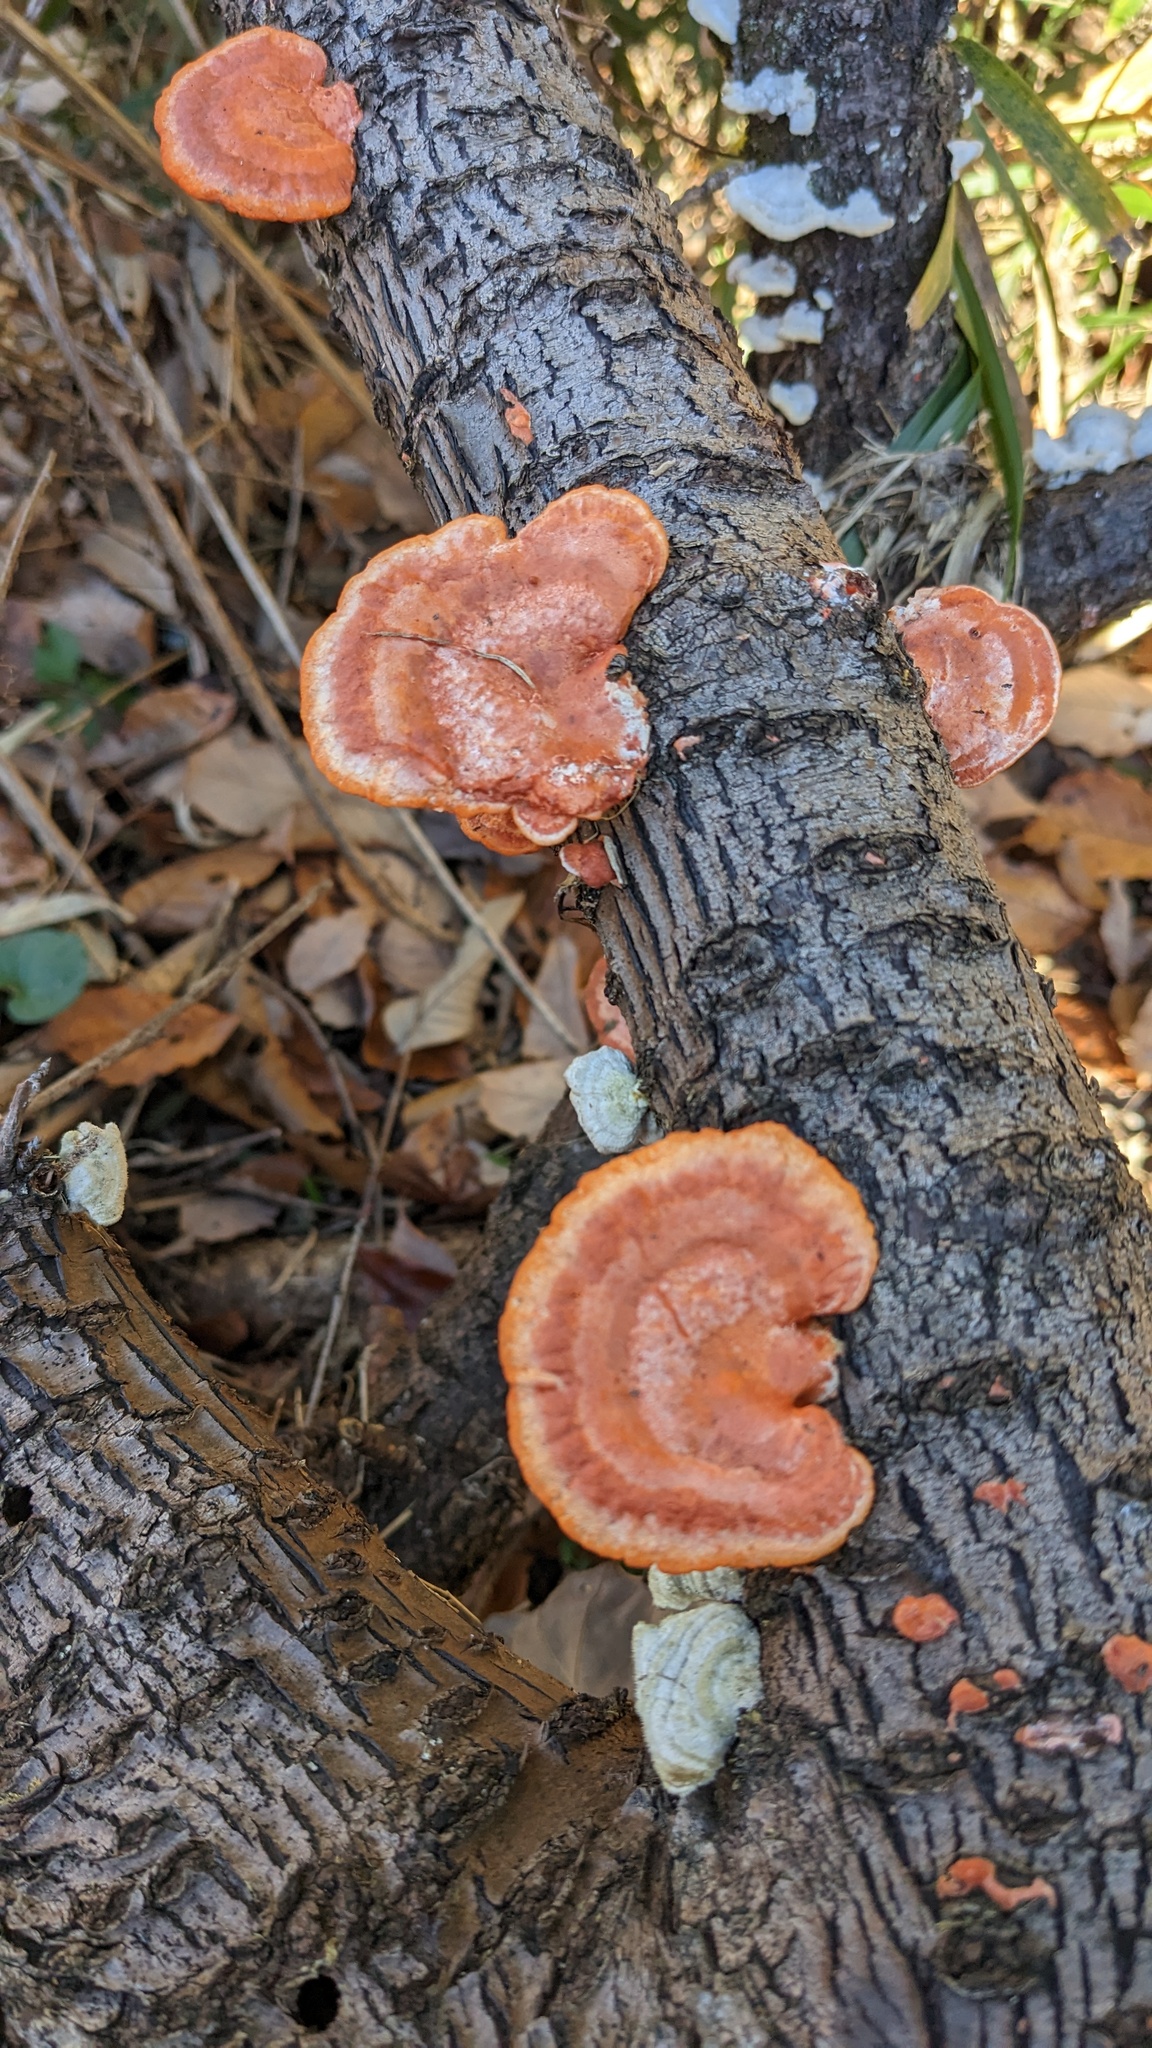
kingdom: Fungi
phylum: Basidiomycota
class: Agaricomycetes
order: Polyporales
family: Polyporaceae
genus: Trametes
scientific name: Trametes coccinea
